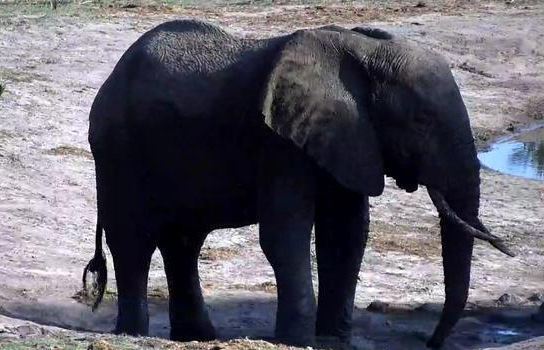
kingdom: Animalia
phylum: Chordata
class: Mammalia
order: Proboscidea
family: Elephantidae
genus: Loxodonta
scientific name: Loxodonta africana
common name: African elephant
